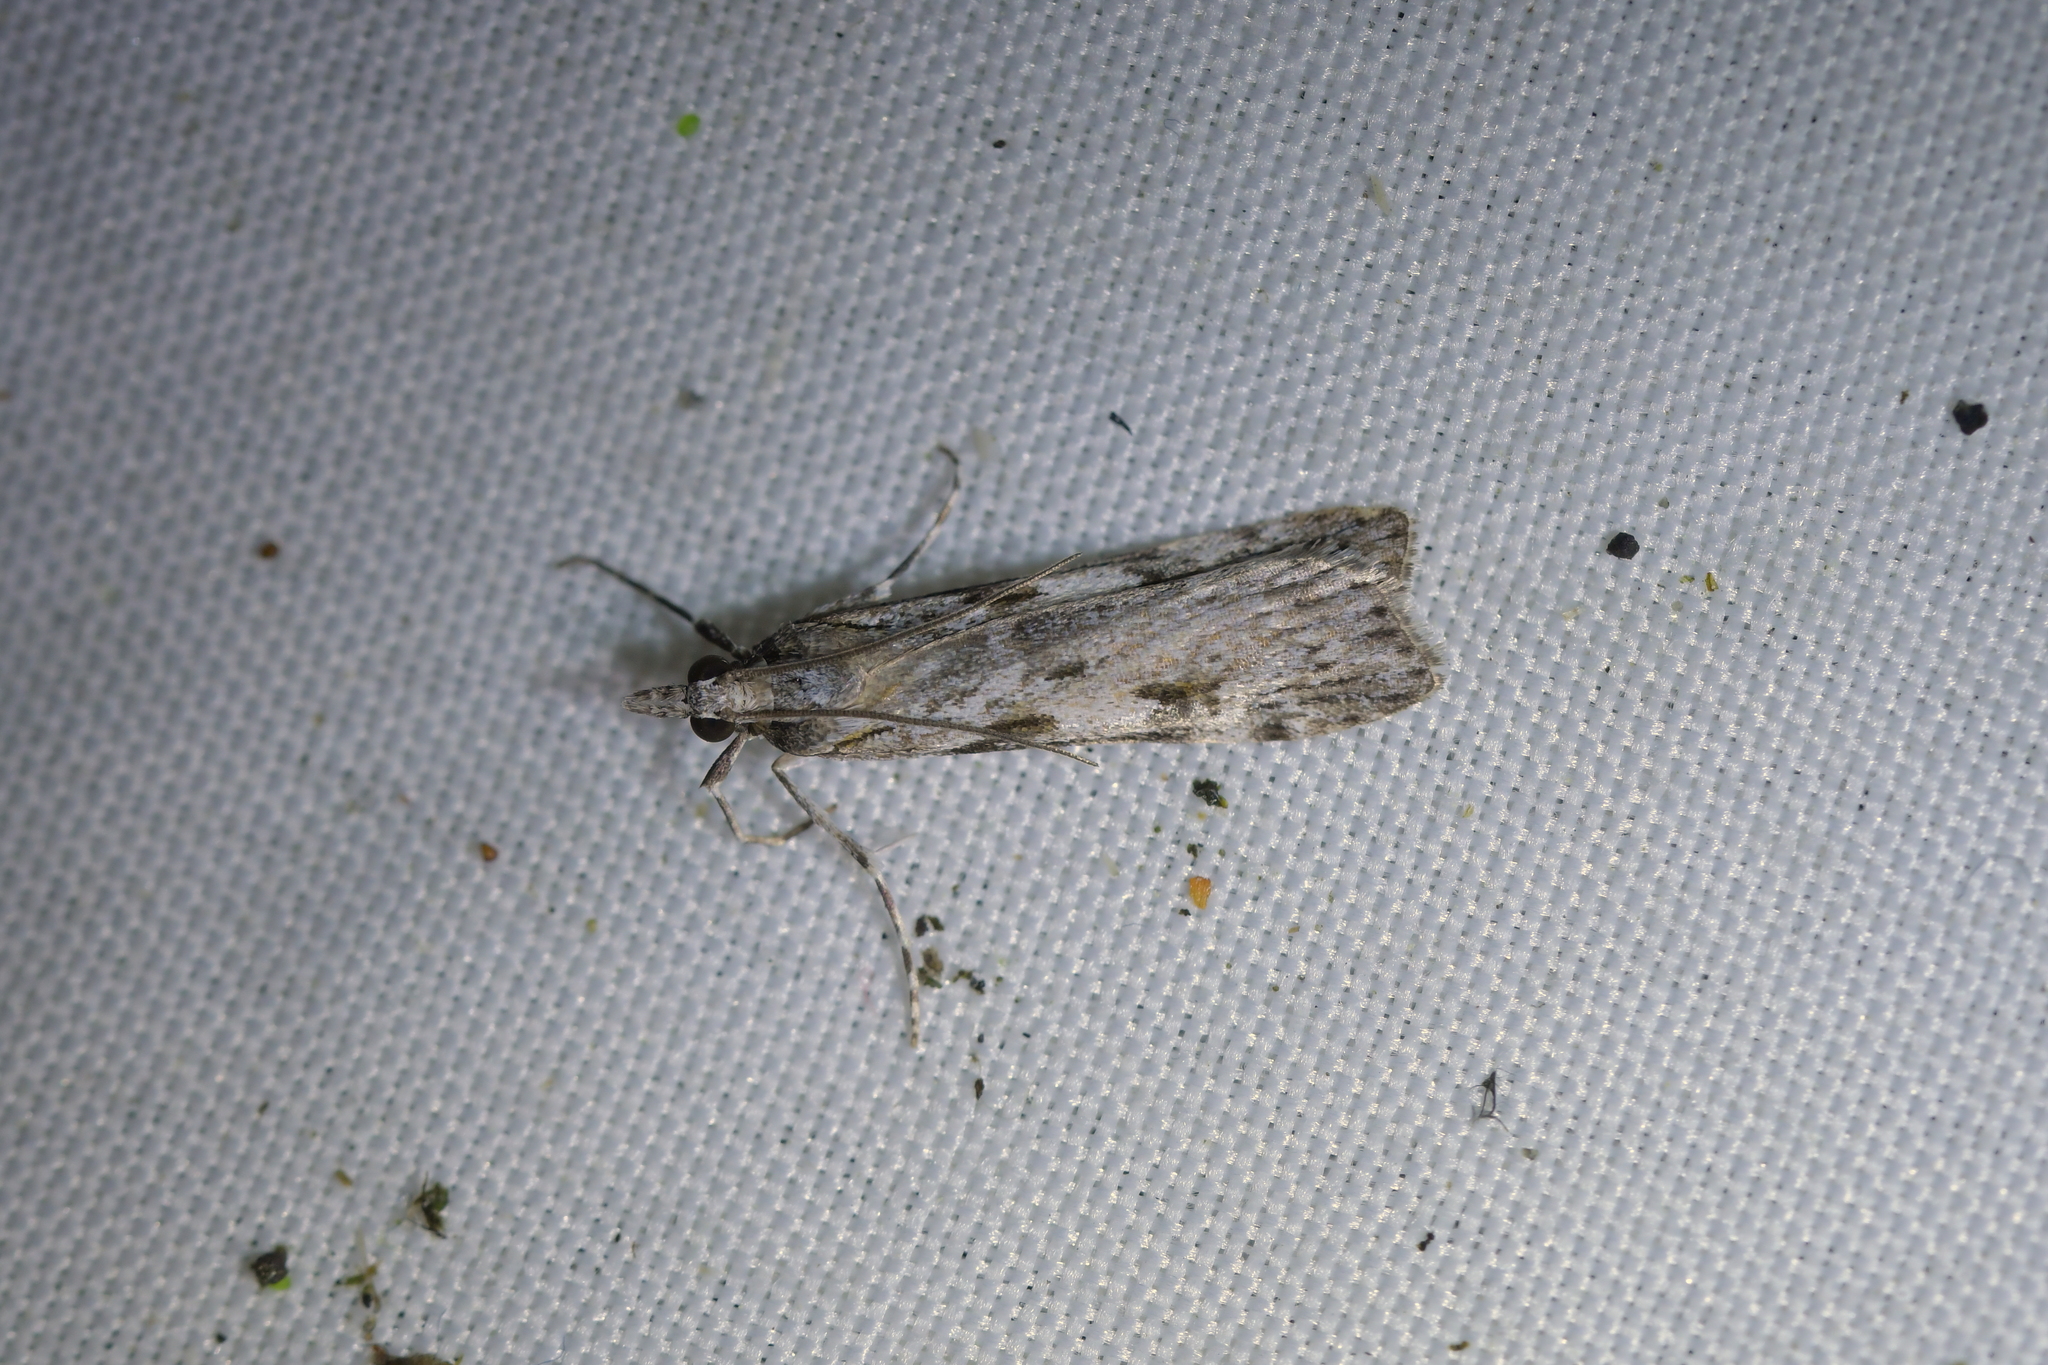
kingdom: Animalia
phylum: Arthropoda
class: Insecta
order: Lepidoptera
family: Crambidae
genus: Scoparia
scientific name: Scoparia halopis
